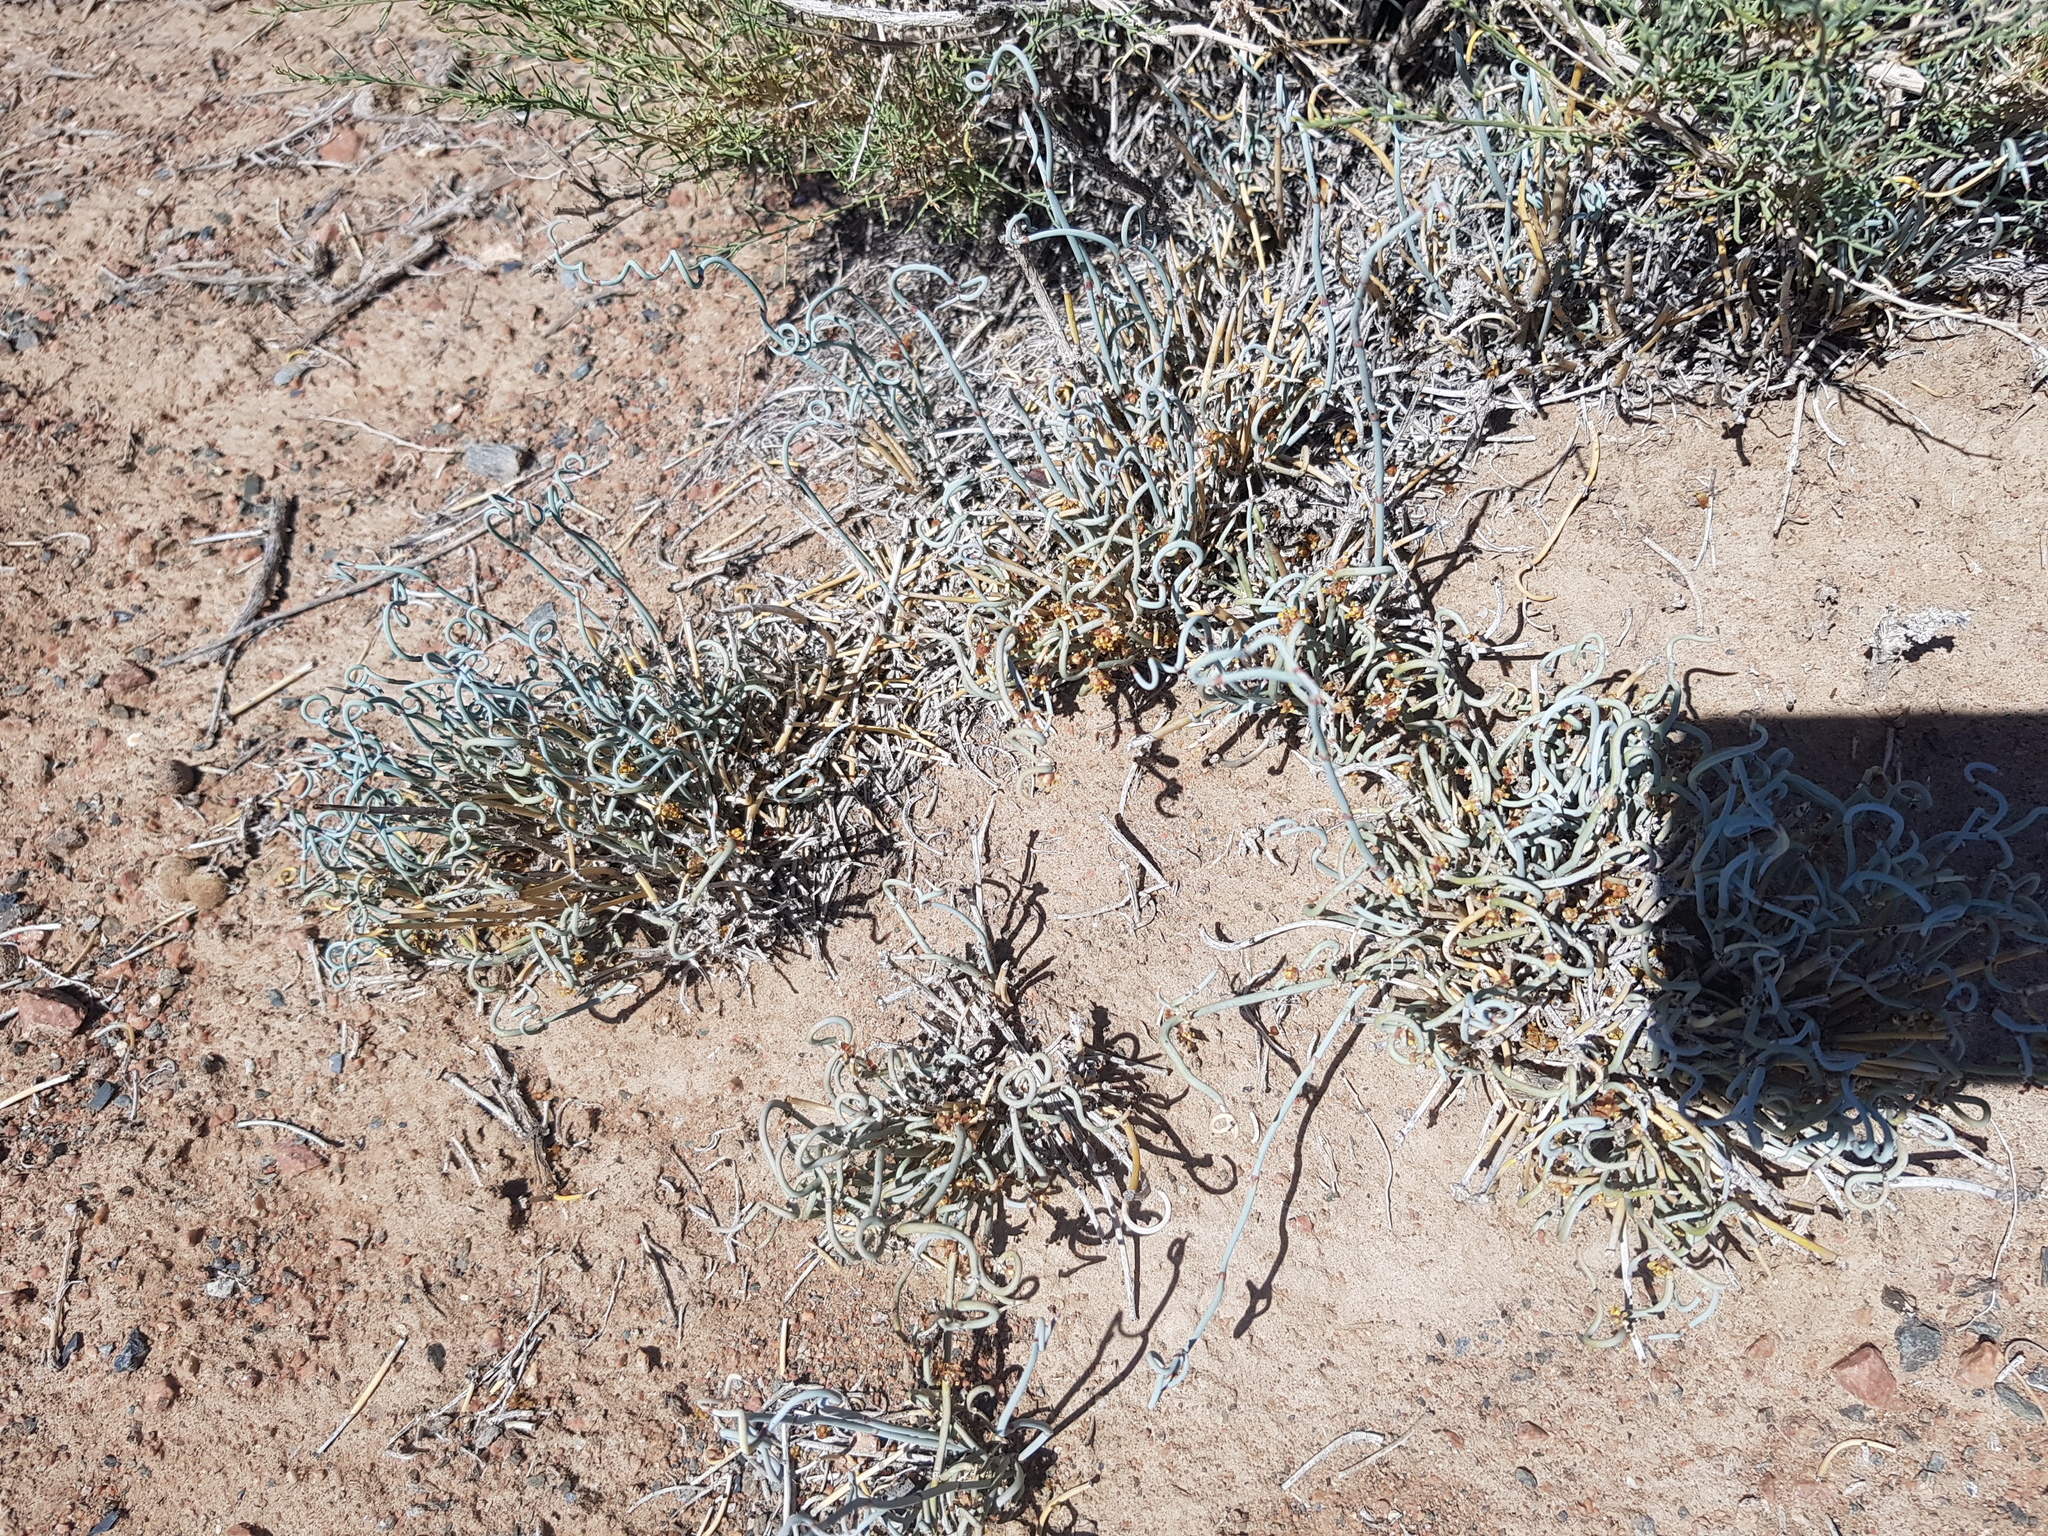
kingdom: Plantae
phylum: Tracheophyta
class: Gnetopsida
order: Ephedrales
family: Ephedraceae
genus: Ephedra
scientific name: Ephedra equisetina
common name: Mongolian ephedra
